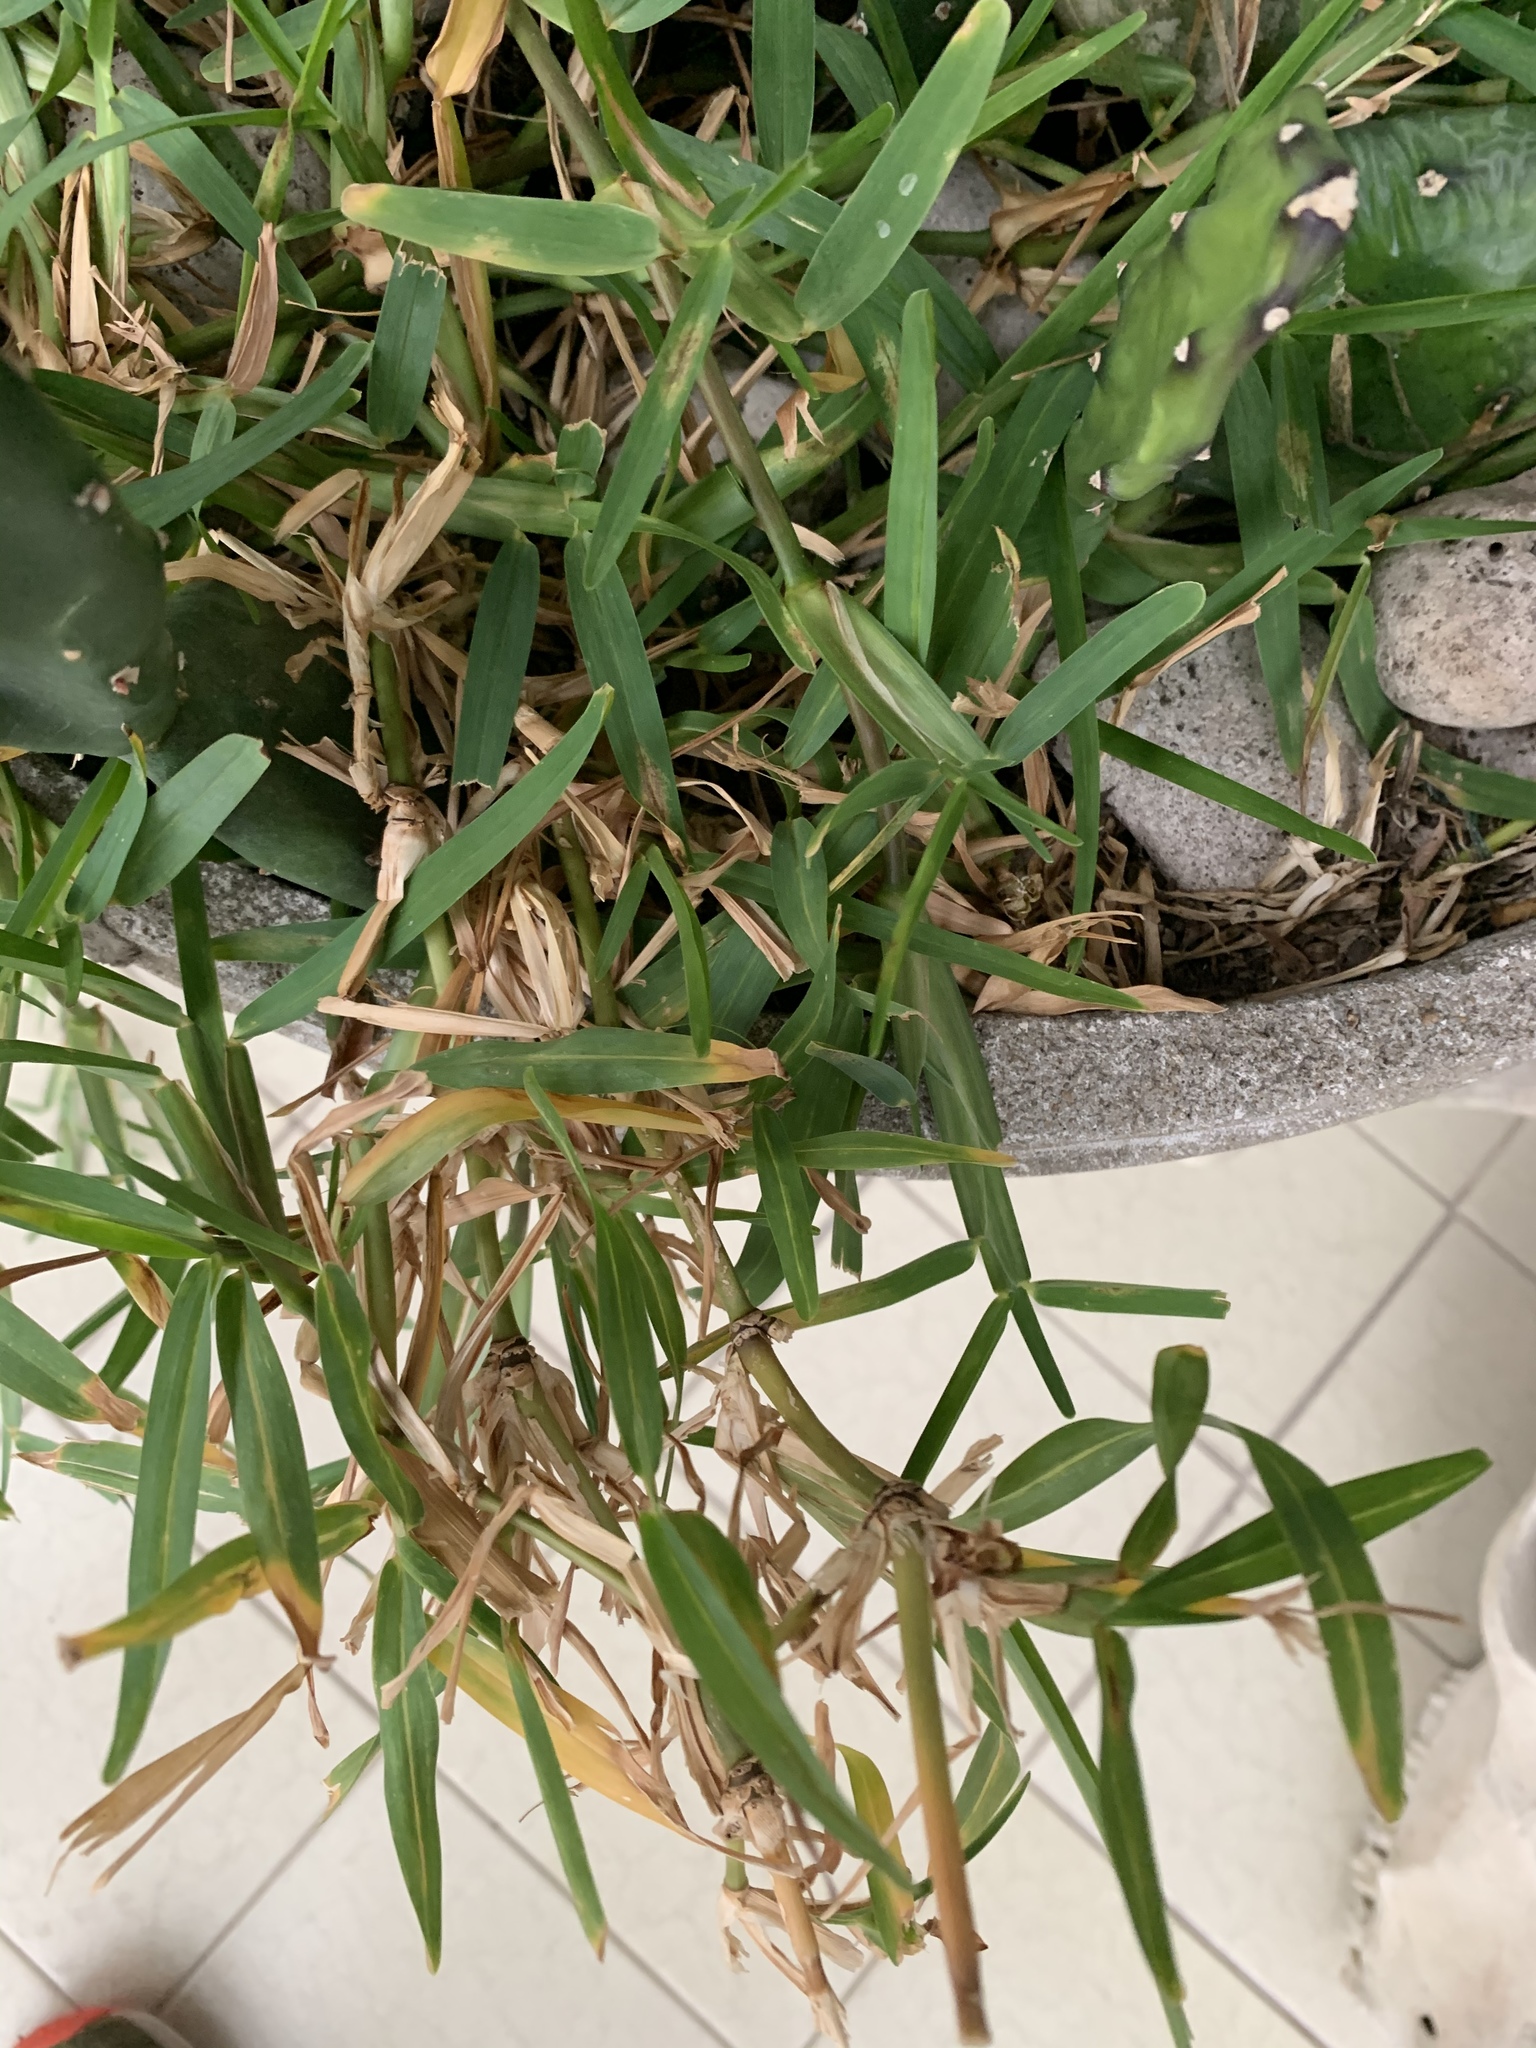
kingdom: Plantae
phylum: Tracheophyta
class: Liliopsida
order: Poales
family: Poaceae
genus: Stenotaphrum
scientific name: Stenotaphrum secundatum
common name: St. augustine grass
